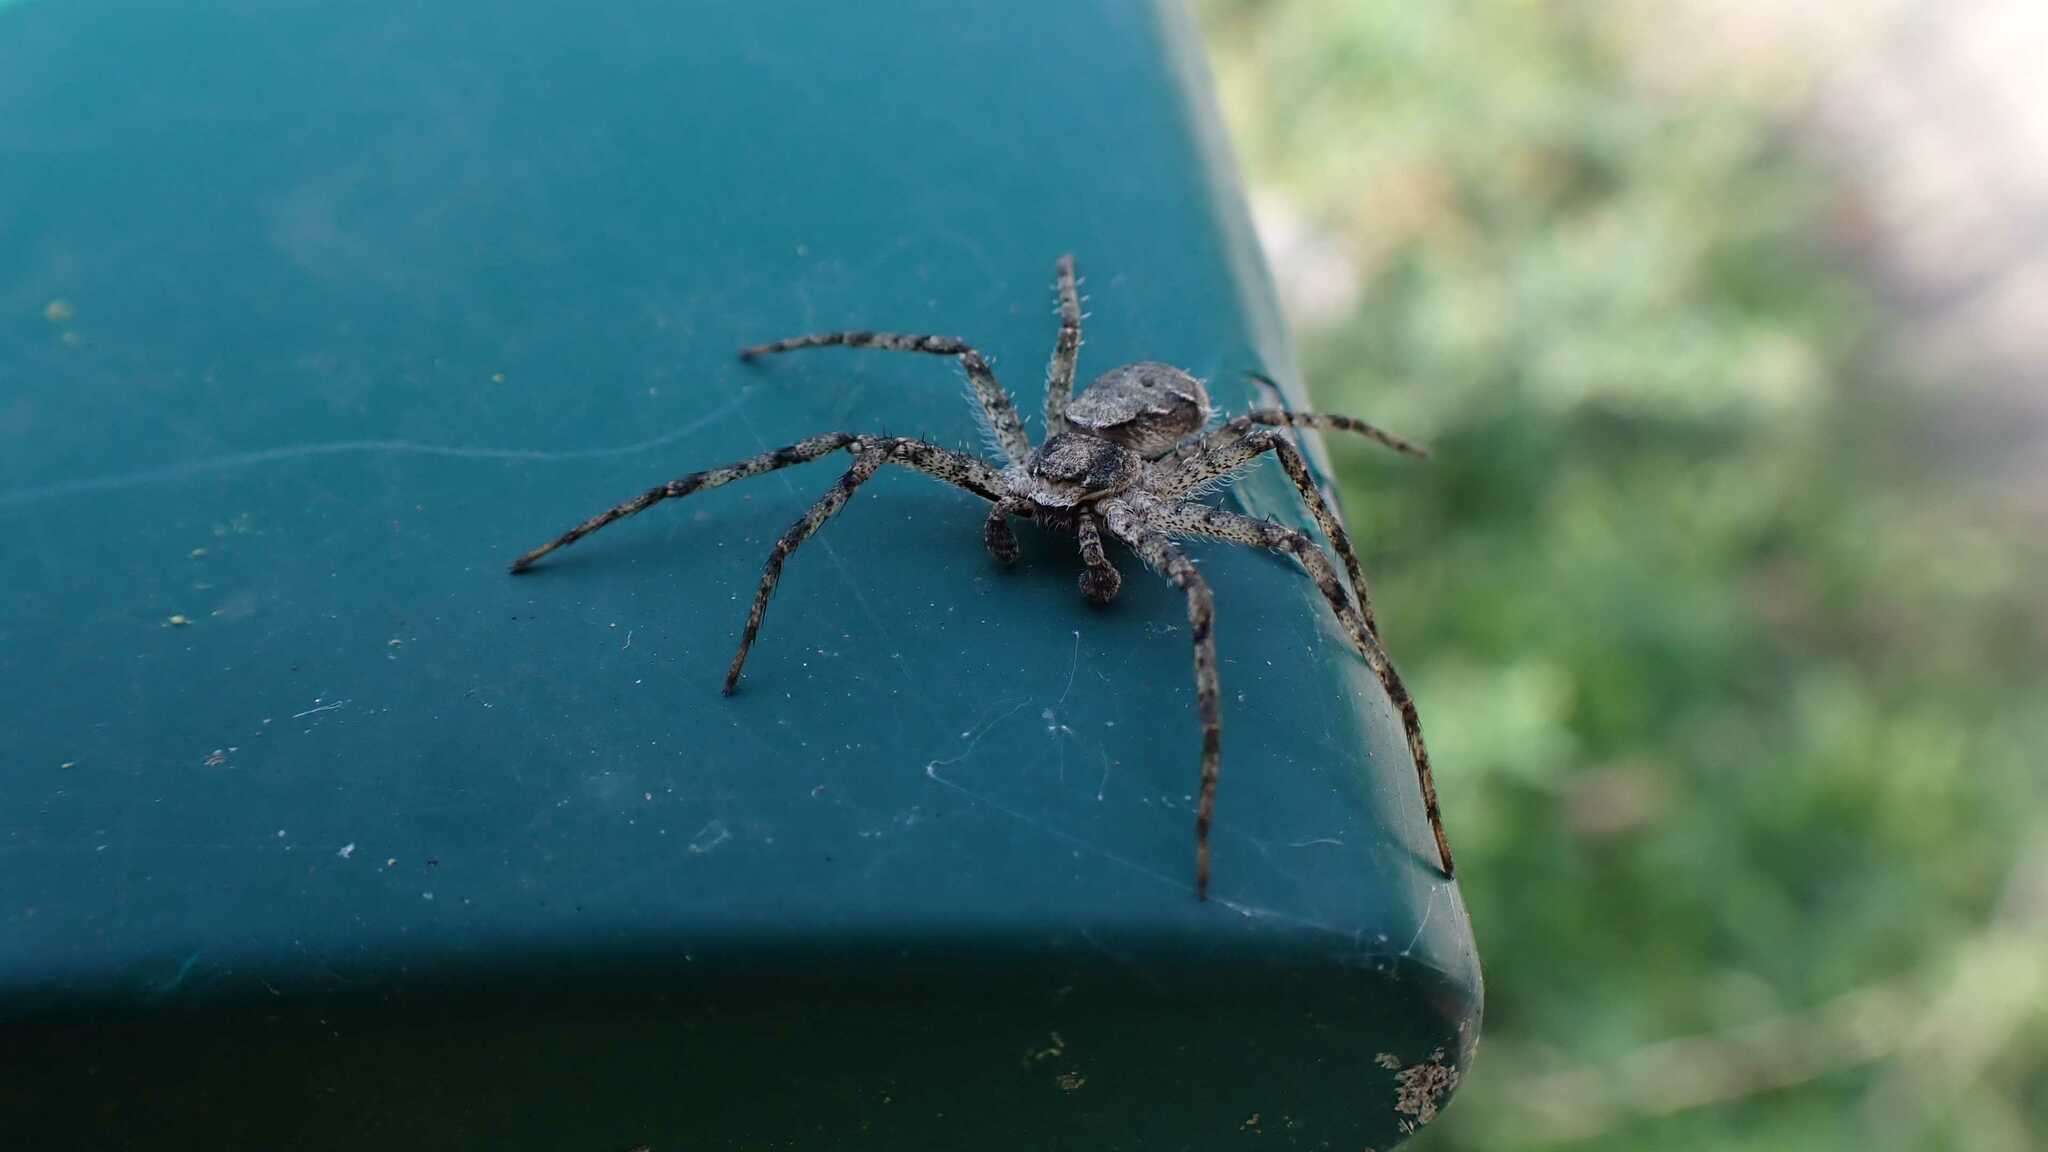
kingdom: Animalia
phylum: Arthropoda
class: Arachnida
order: Araneae
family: Philodromidae
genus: Philodromus
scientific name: Philodromus margaritatus
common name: Lichen running-spider
